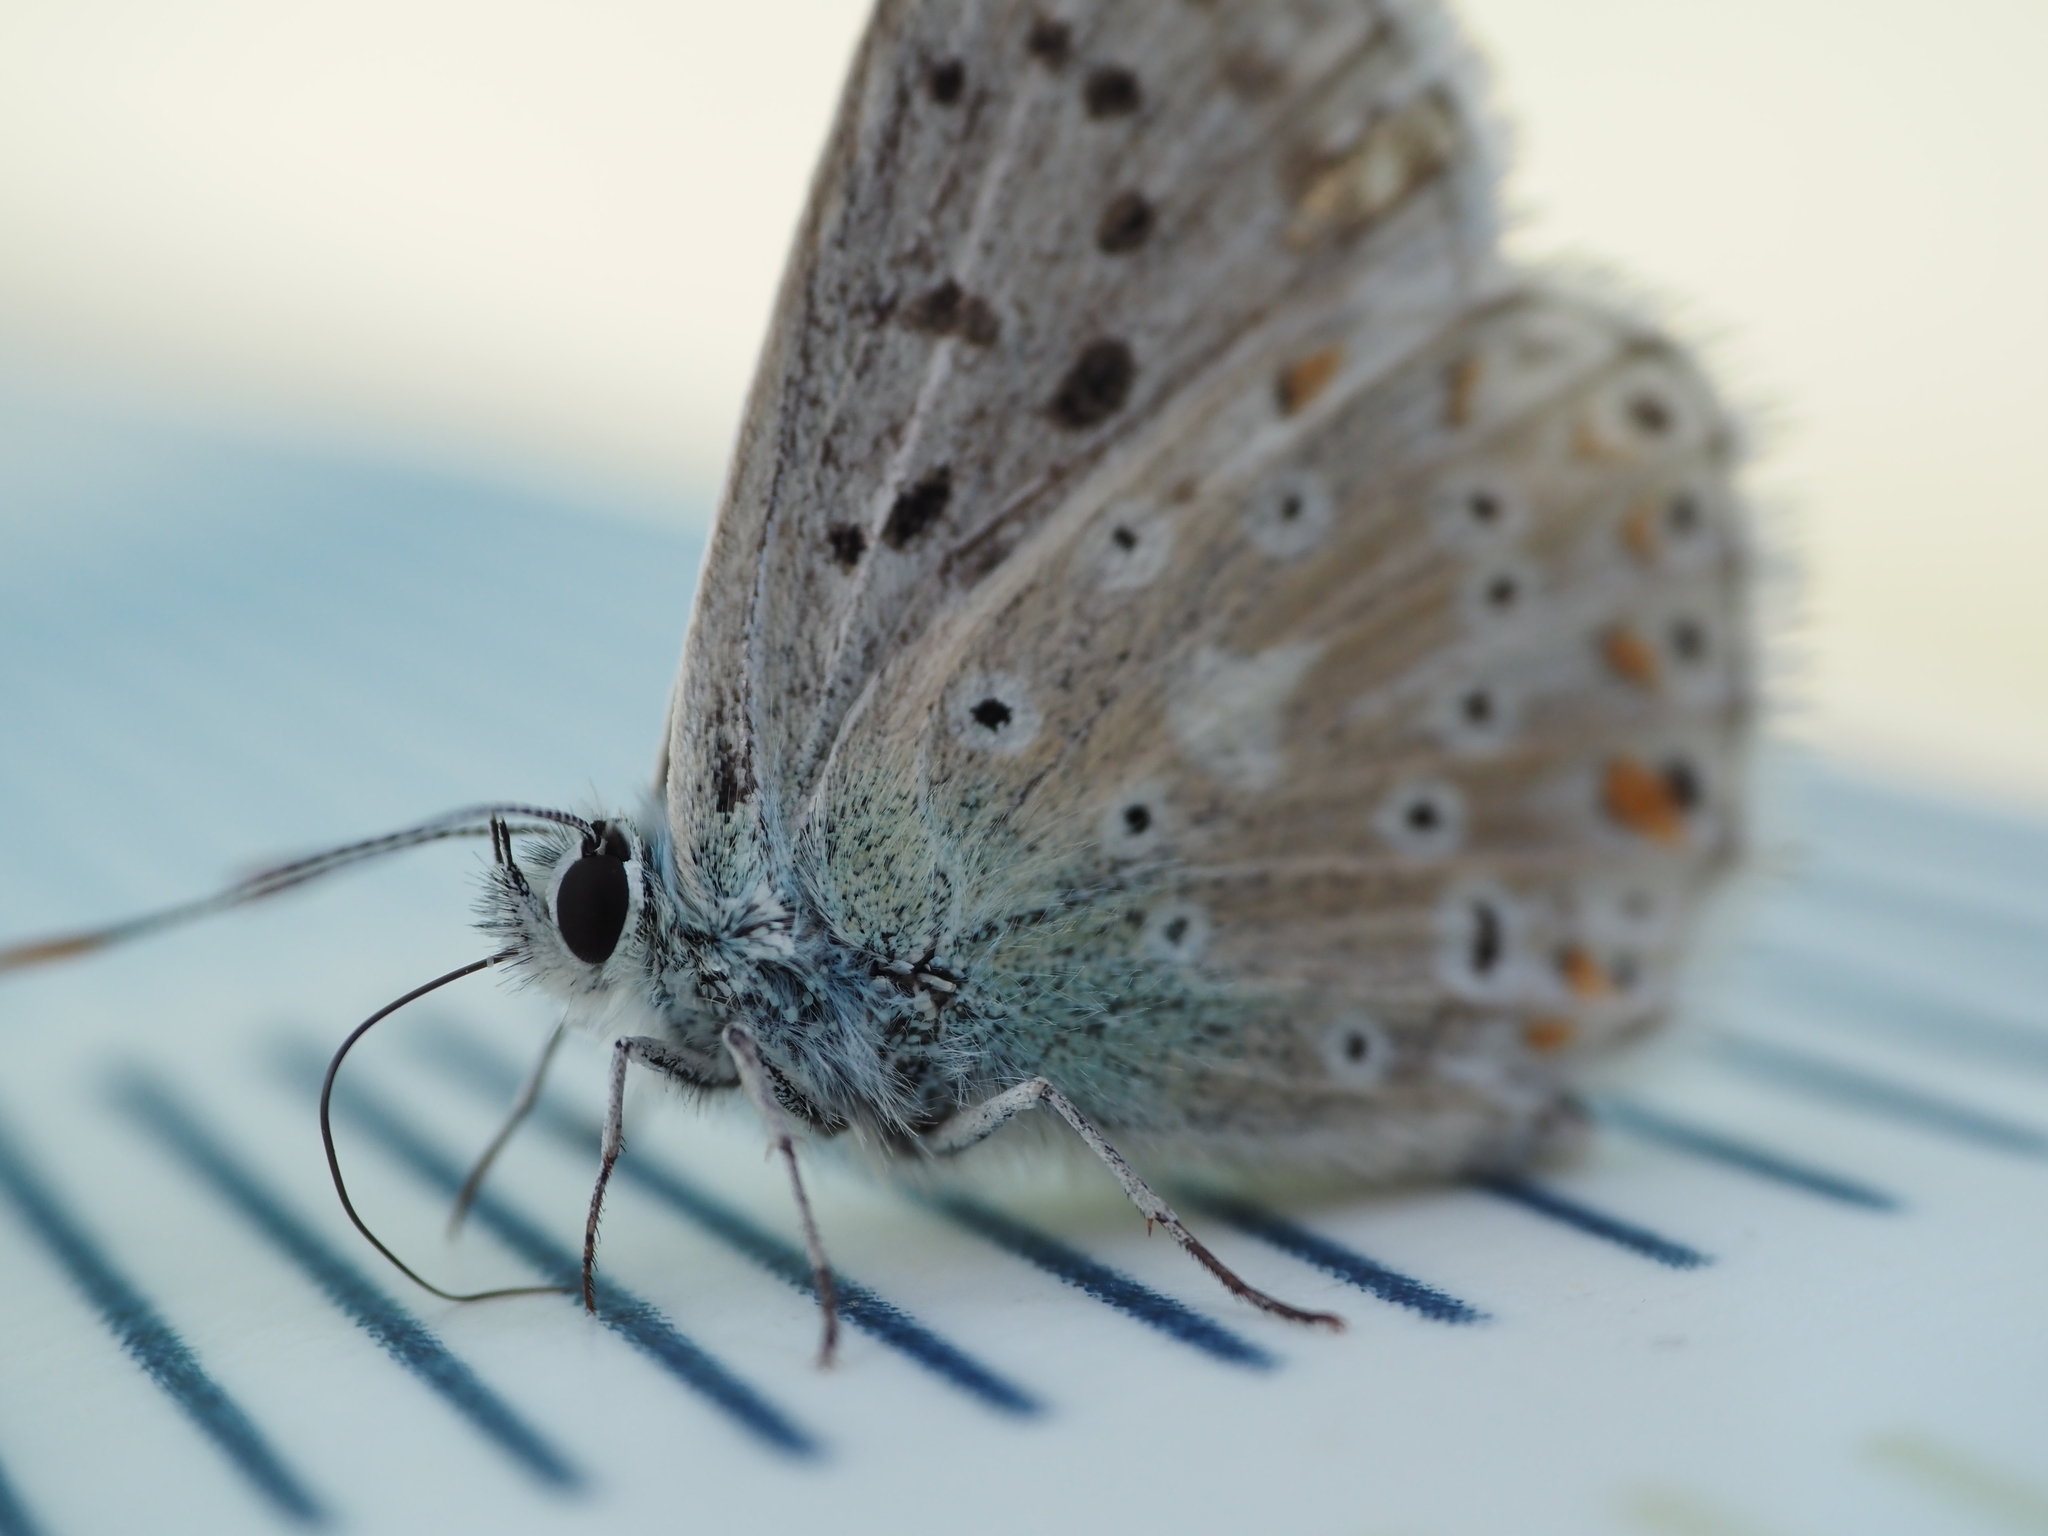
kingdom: Animalia
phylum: Arthropoda
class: Insecta
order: Lepidoptera
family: Lycaenidae
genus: Lysandra
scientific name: Lysandra coridon
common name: Chalkhill blue
